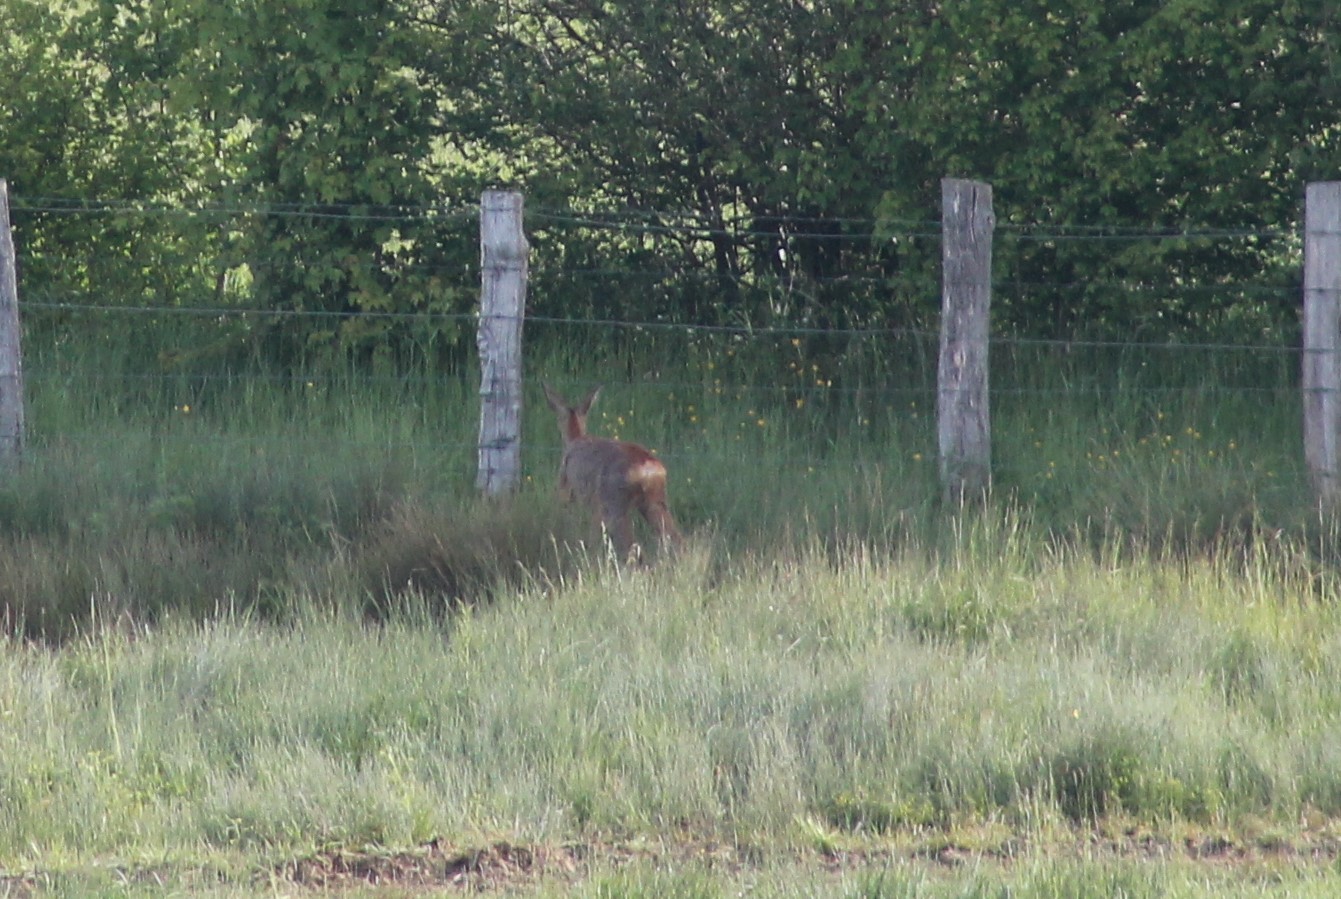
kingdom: Animalia
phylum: Chordata
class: Mammalia
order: Artiodactyla
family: Cervidae
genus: Capreolus
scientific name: Capreolus capreolus
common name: Western roe deer
